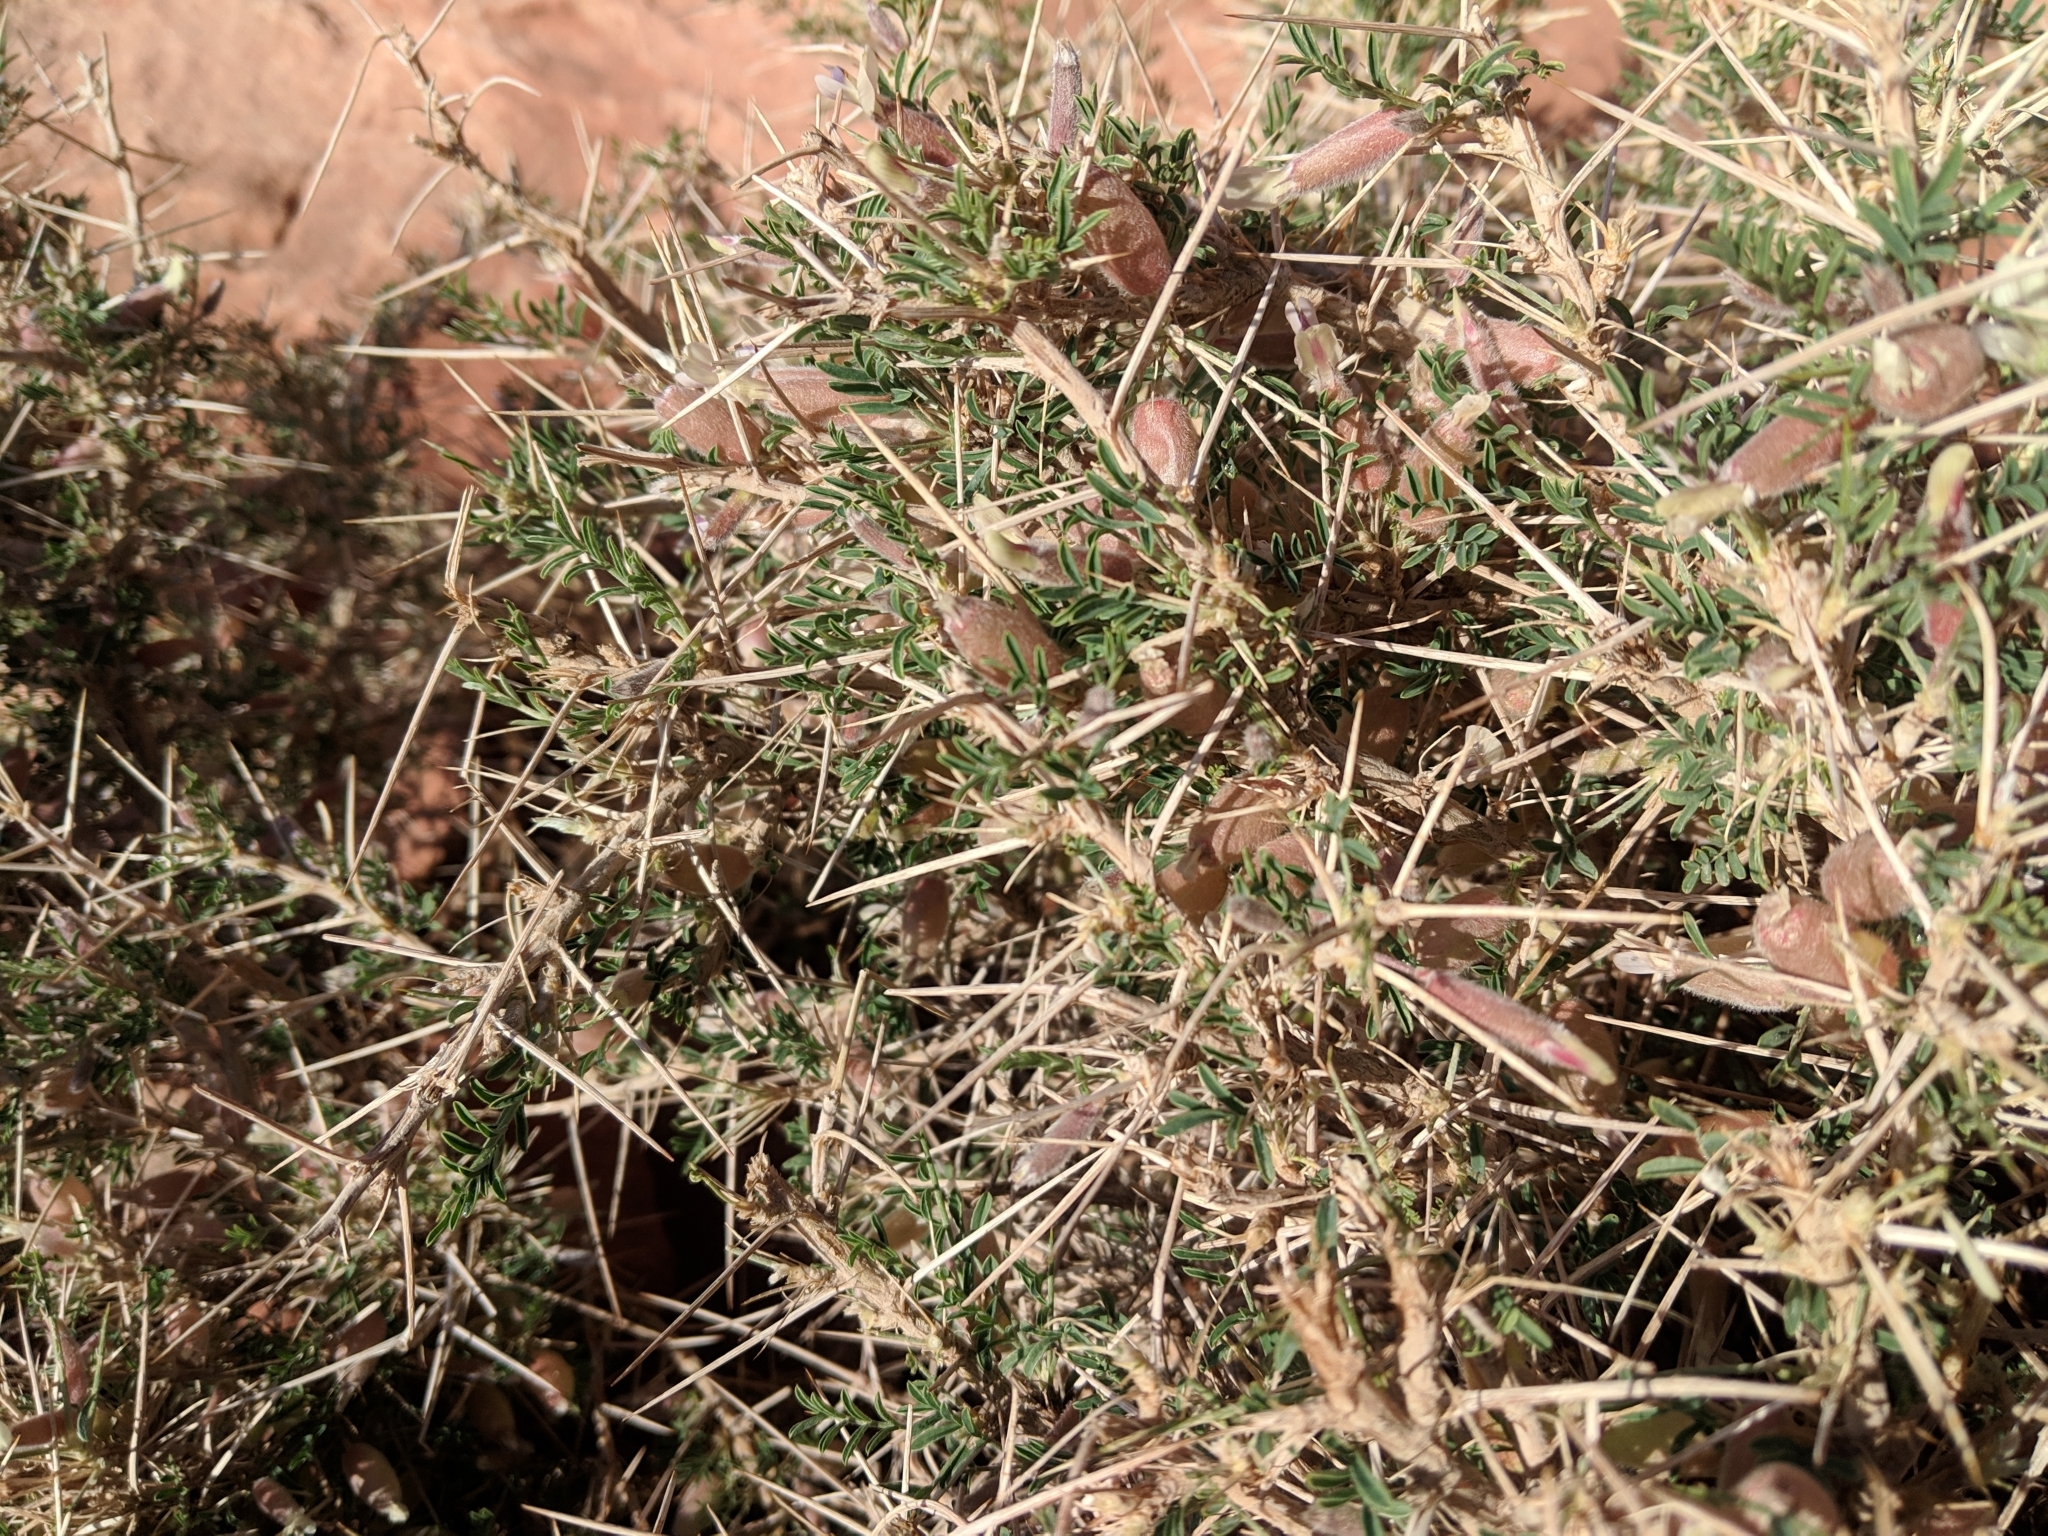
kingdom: Plantae
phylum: Tracheophyta
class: Magnoliopsida
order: Fabales
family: Fabaceae
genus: Astragalus
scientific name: Astragalus spinosus
